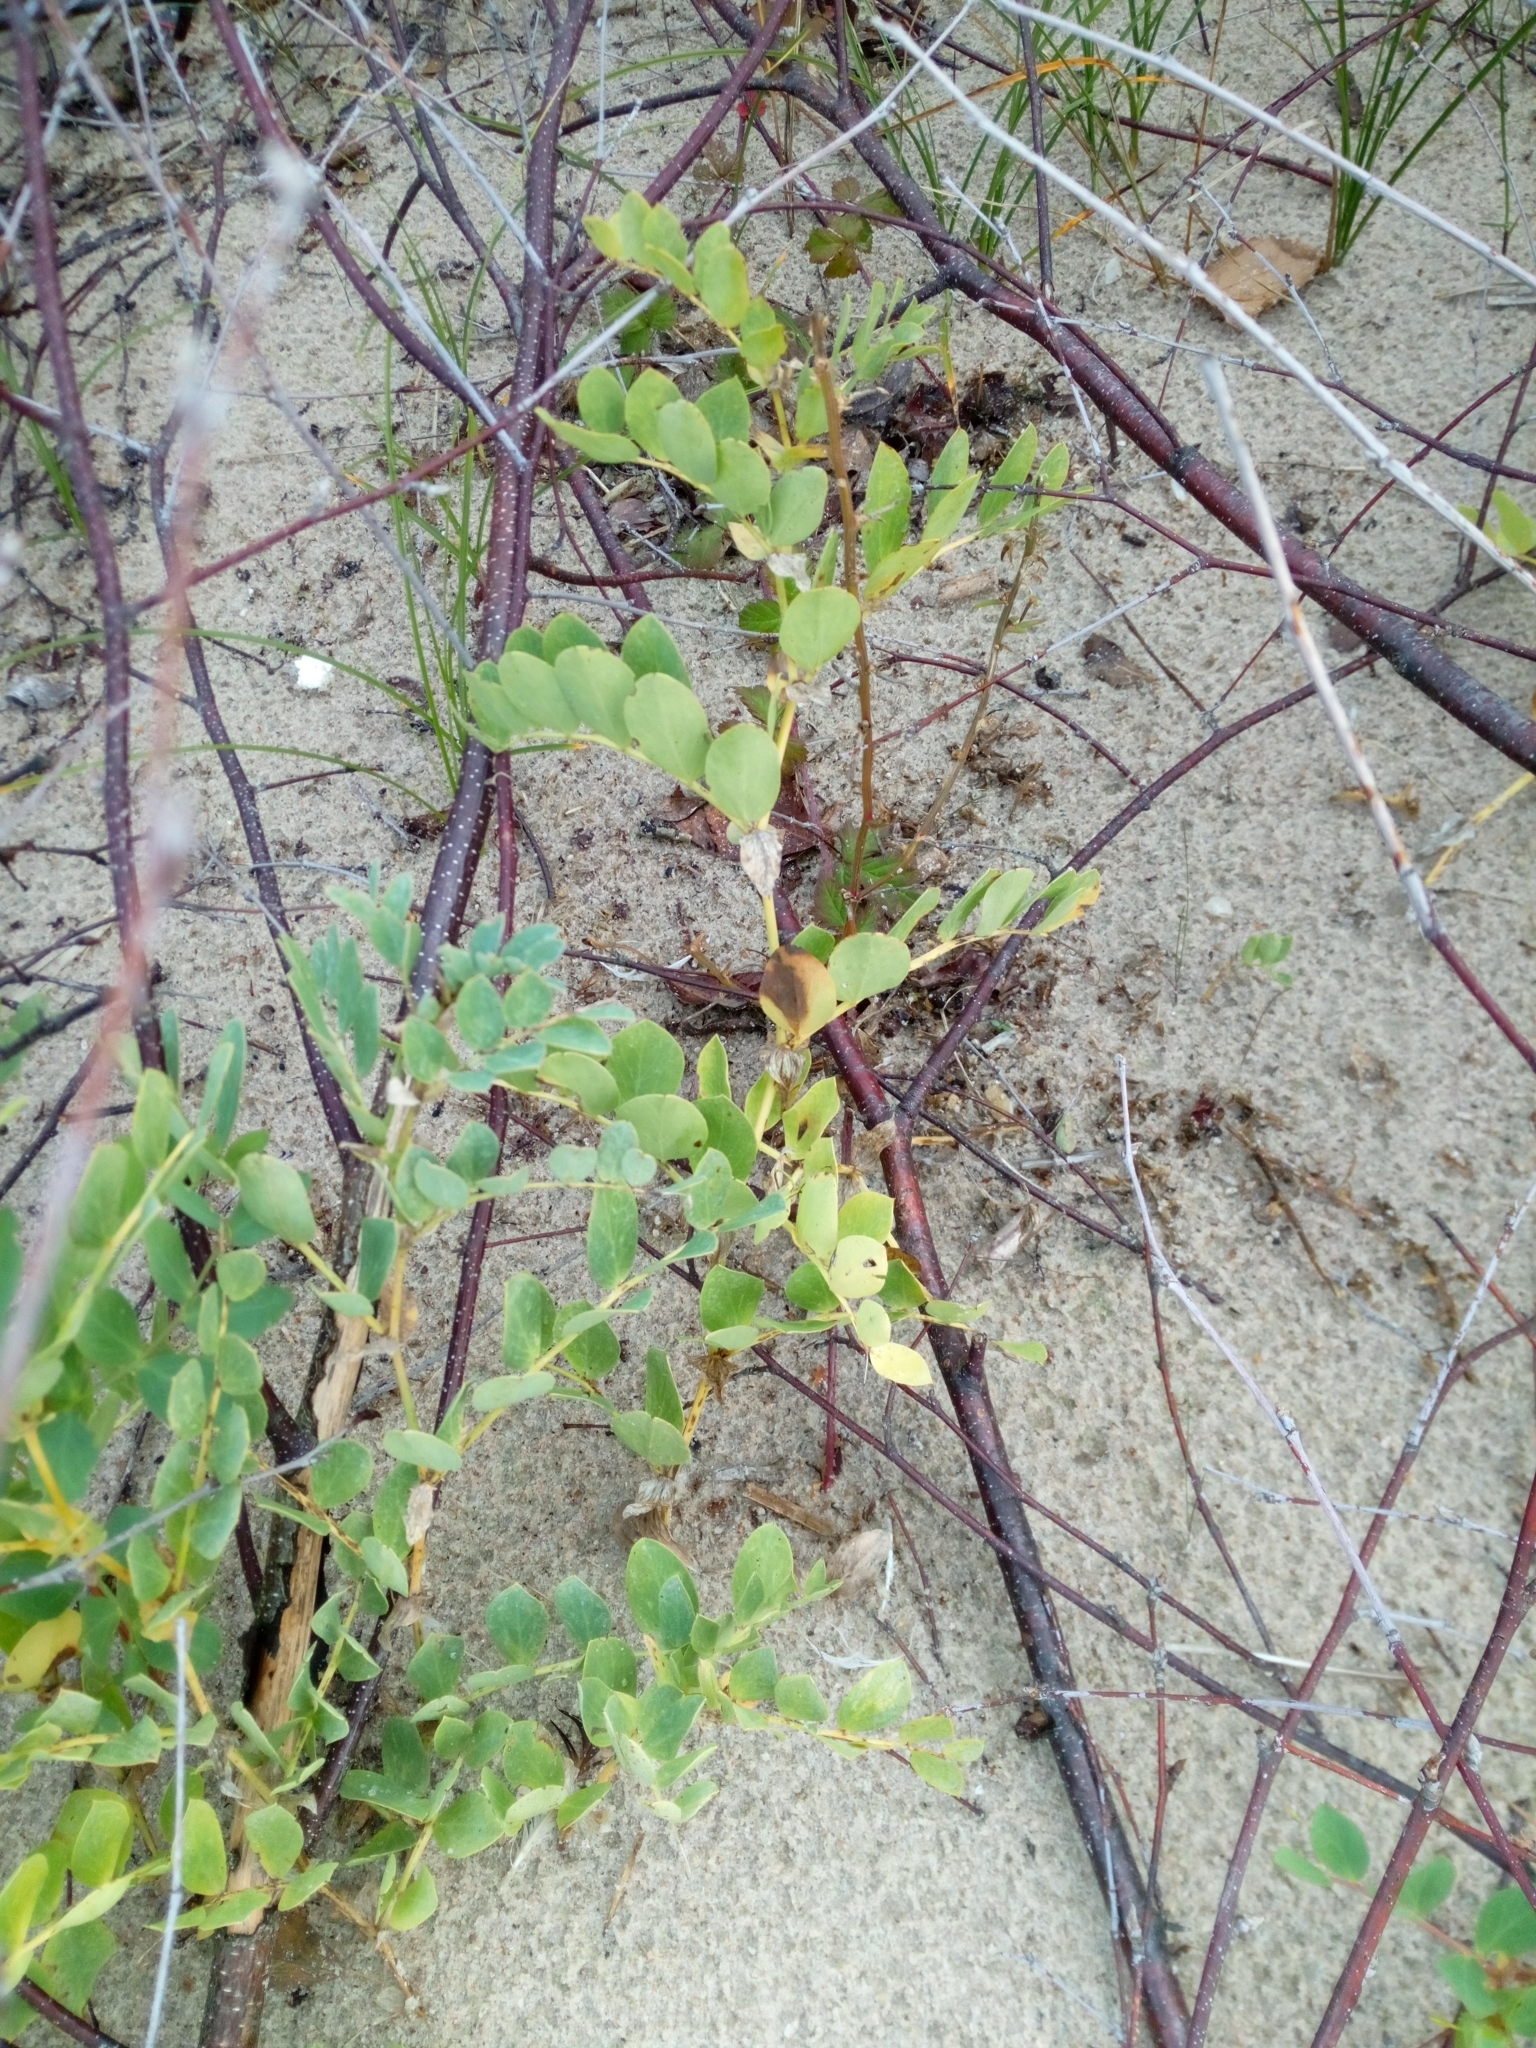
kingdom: Plantae
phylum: Tracheophyta
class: Magnoliopsida
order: Fabales
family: Fabaceae
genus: Lathyrus
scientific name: Lathyrus japonicus
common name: Sea pea
